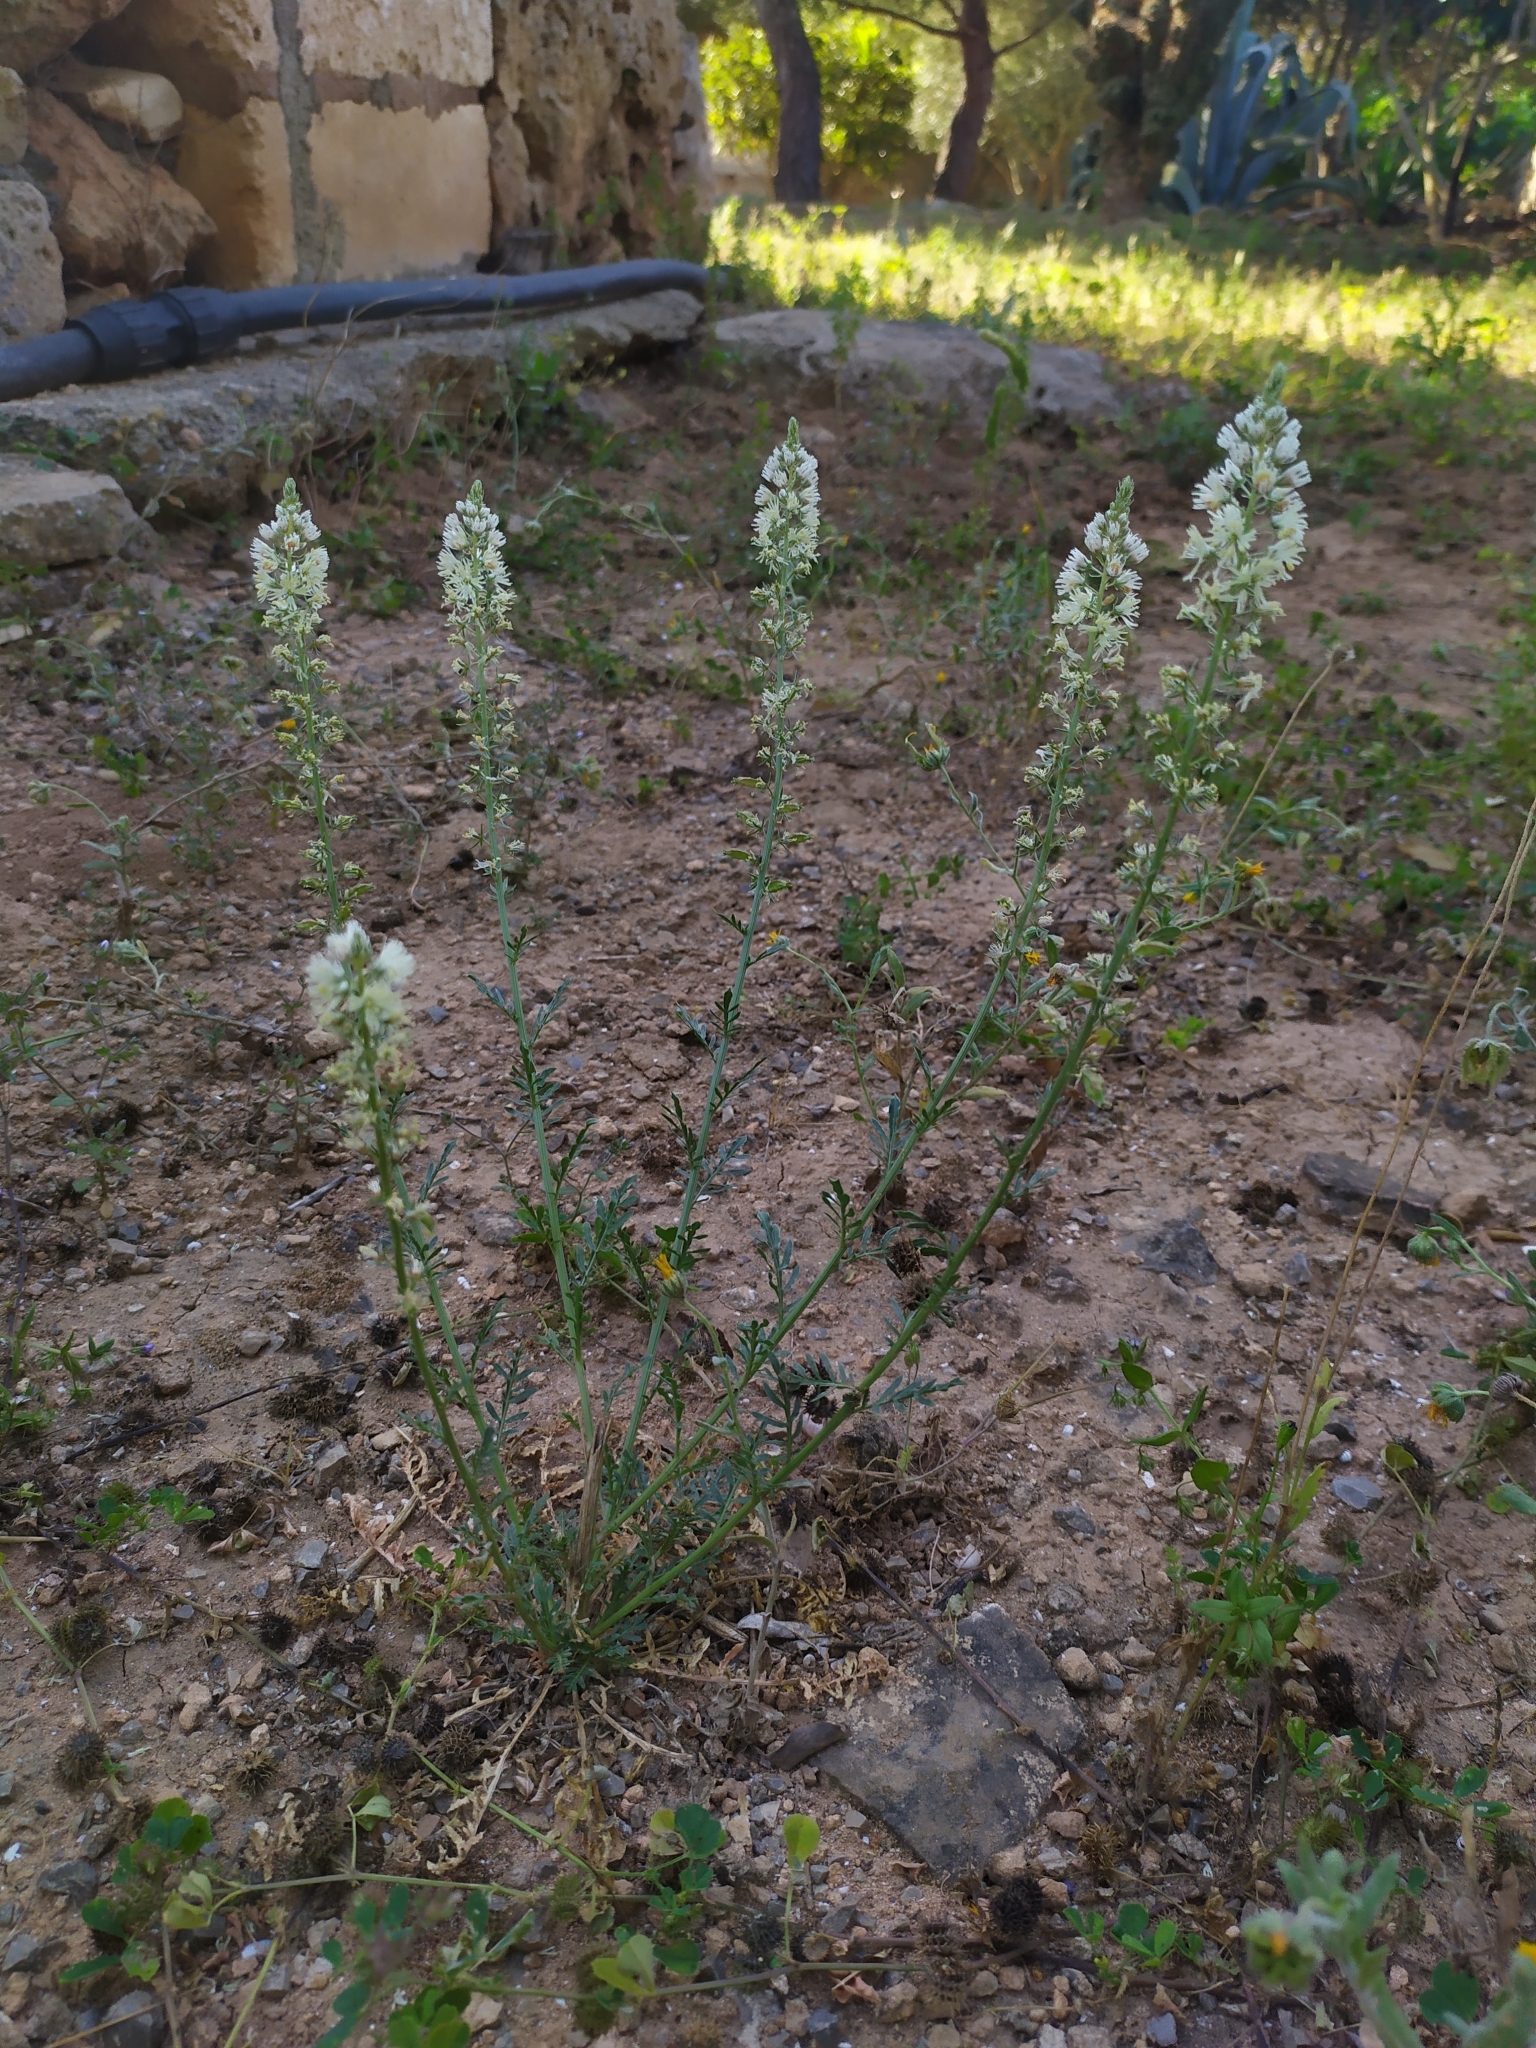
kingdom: Plantae
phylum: Tracheophyta
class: Magnoliopsida
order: Brassicales
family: Resedaceae
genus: Reseda
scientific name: Reseda alba
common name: White mignonette
